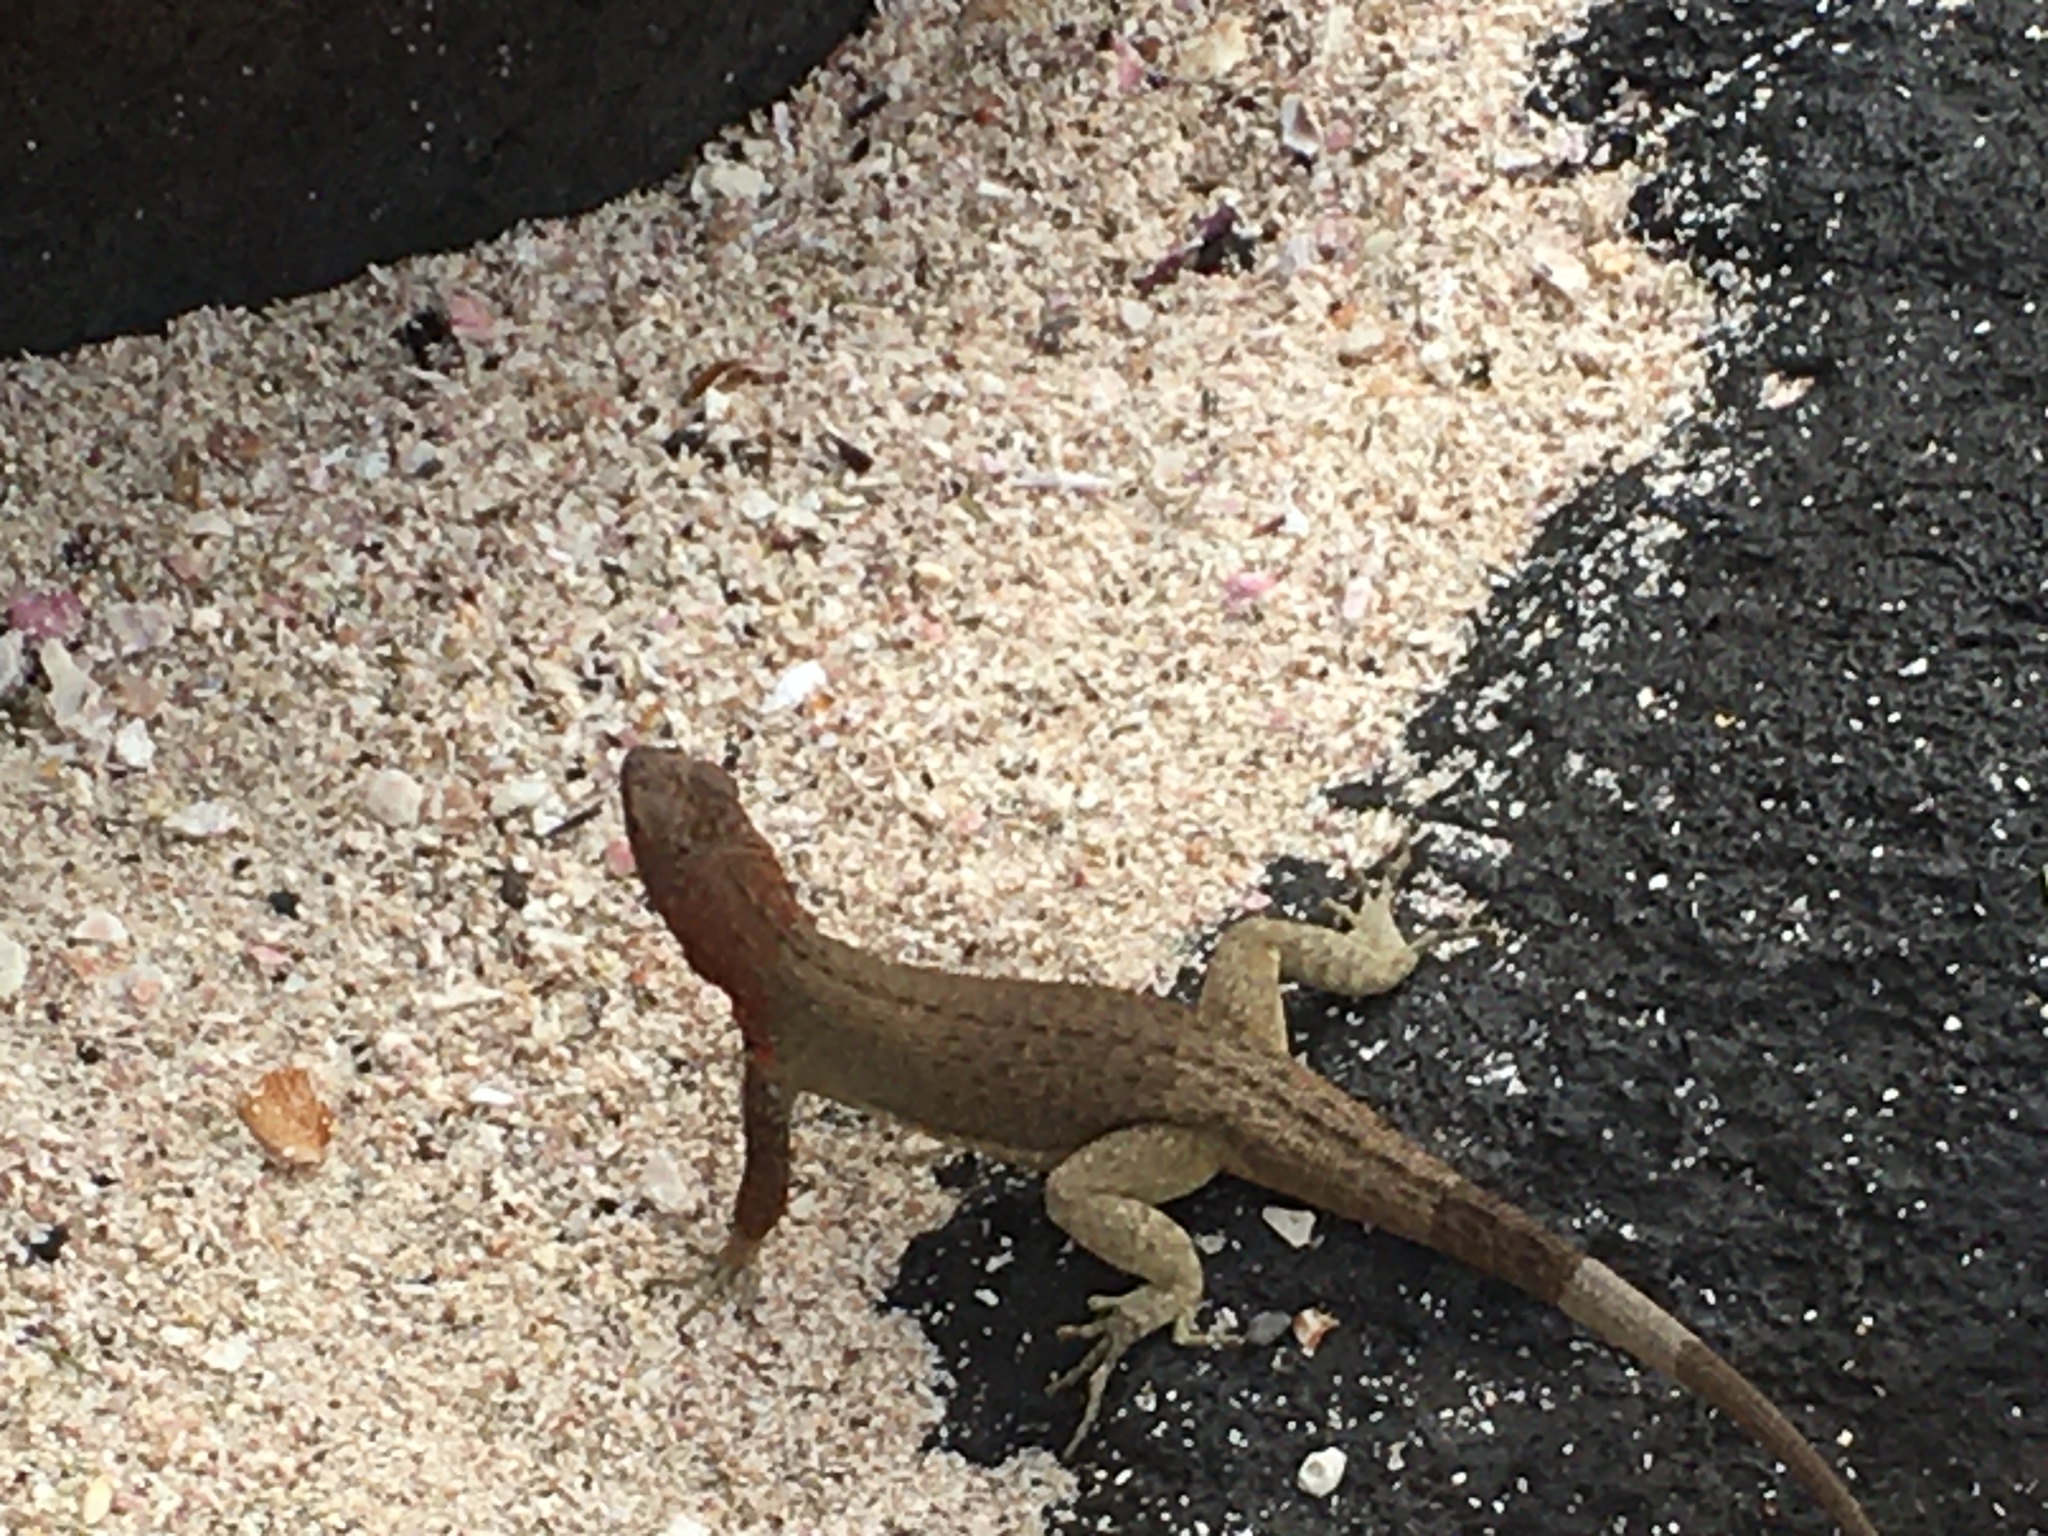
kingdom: Animalia
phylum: Chordata
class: Squamata
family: Tropiduridae
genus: Microlophus
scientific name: Microlophus delanonis
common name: Hood lava lizard
